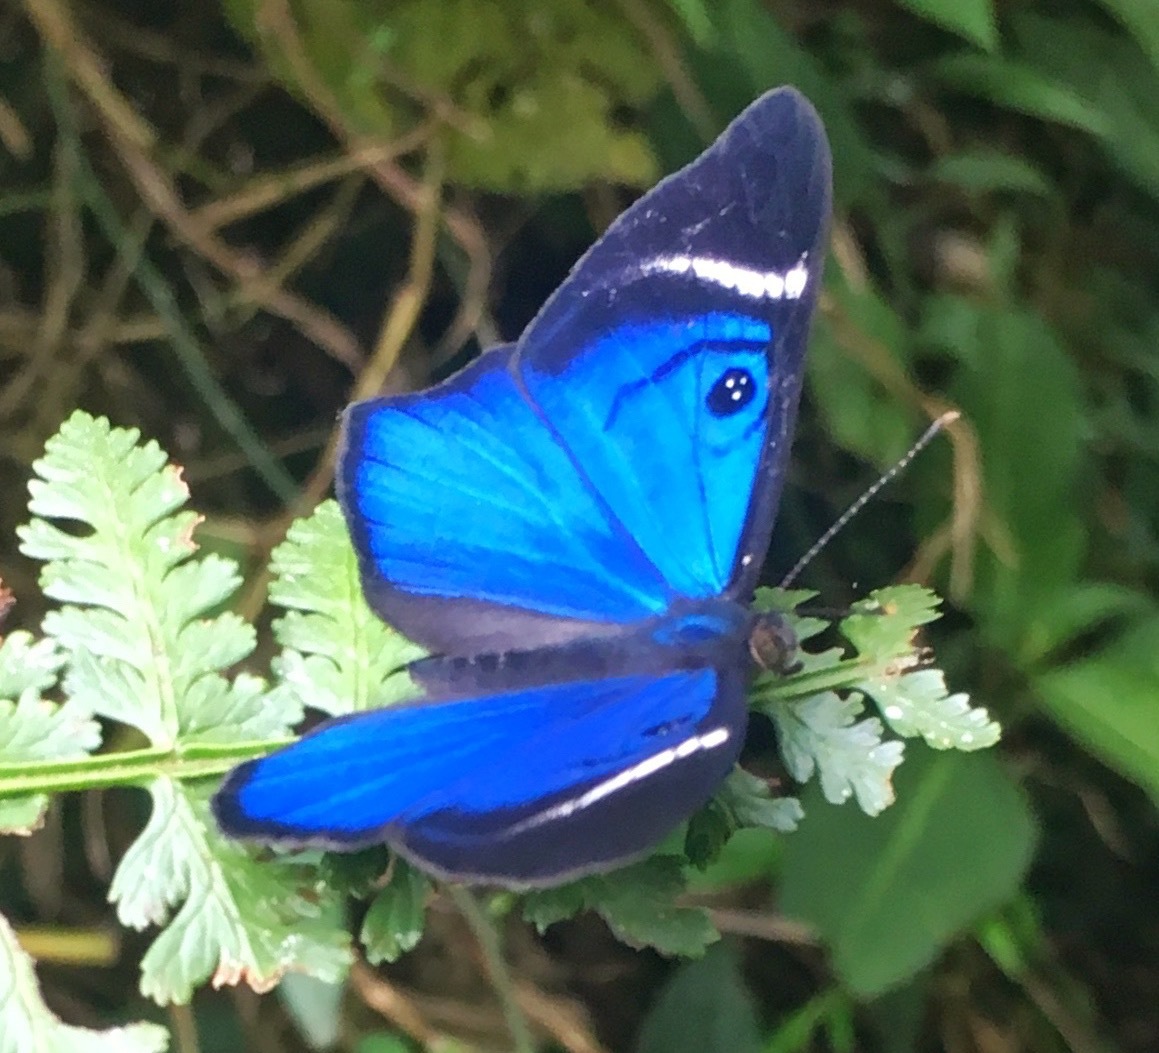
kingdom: Animalia
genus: Mesosemia
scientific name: Mesosemia mevania
